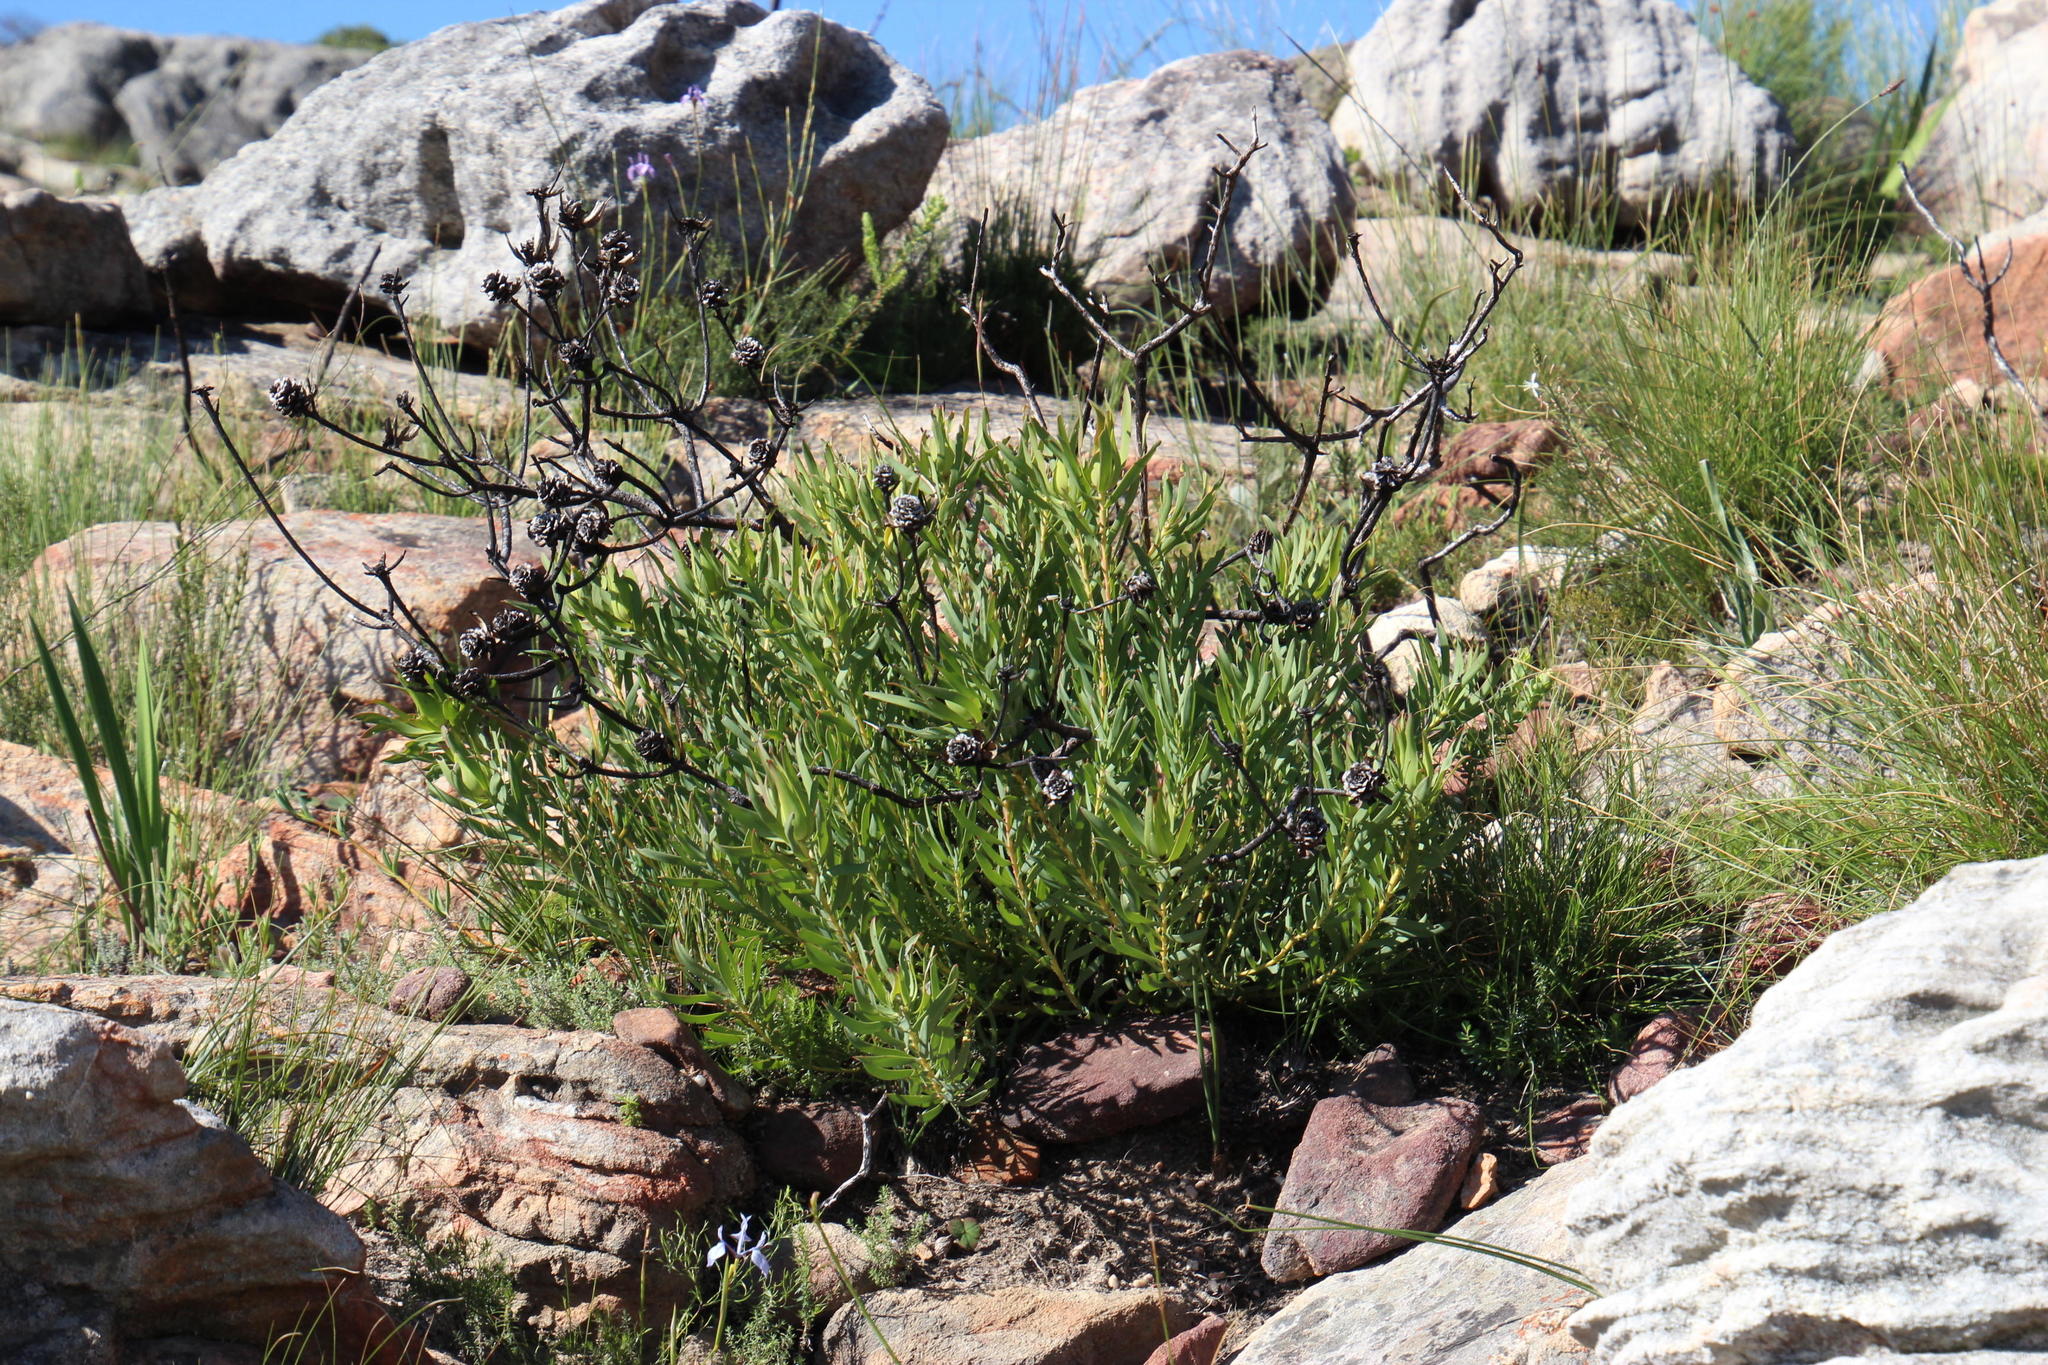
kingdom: Plantae
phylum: Tracheophyta
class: Magnoliopsida
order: Proteales
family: Proteaceae
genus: Leucadendron
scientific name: Leucadendron salignum
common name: Common sunshine conebush
